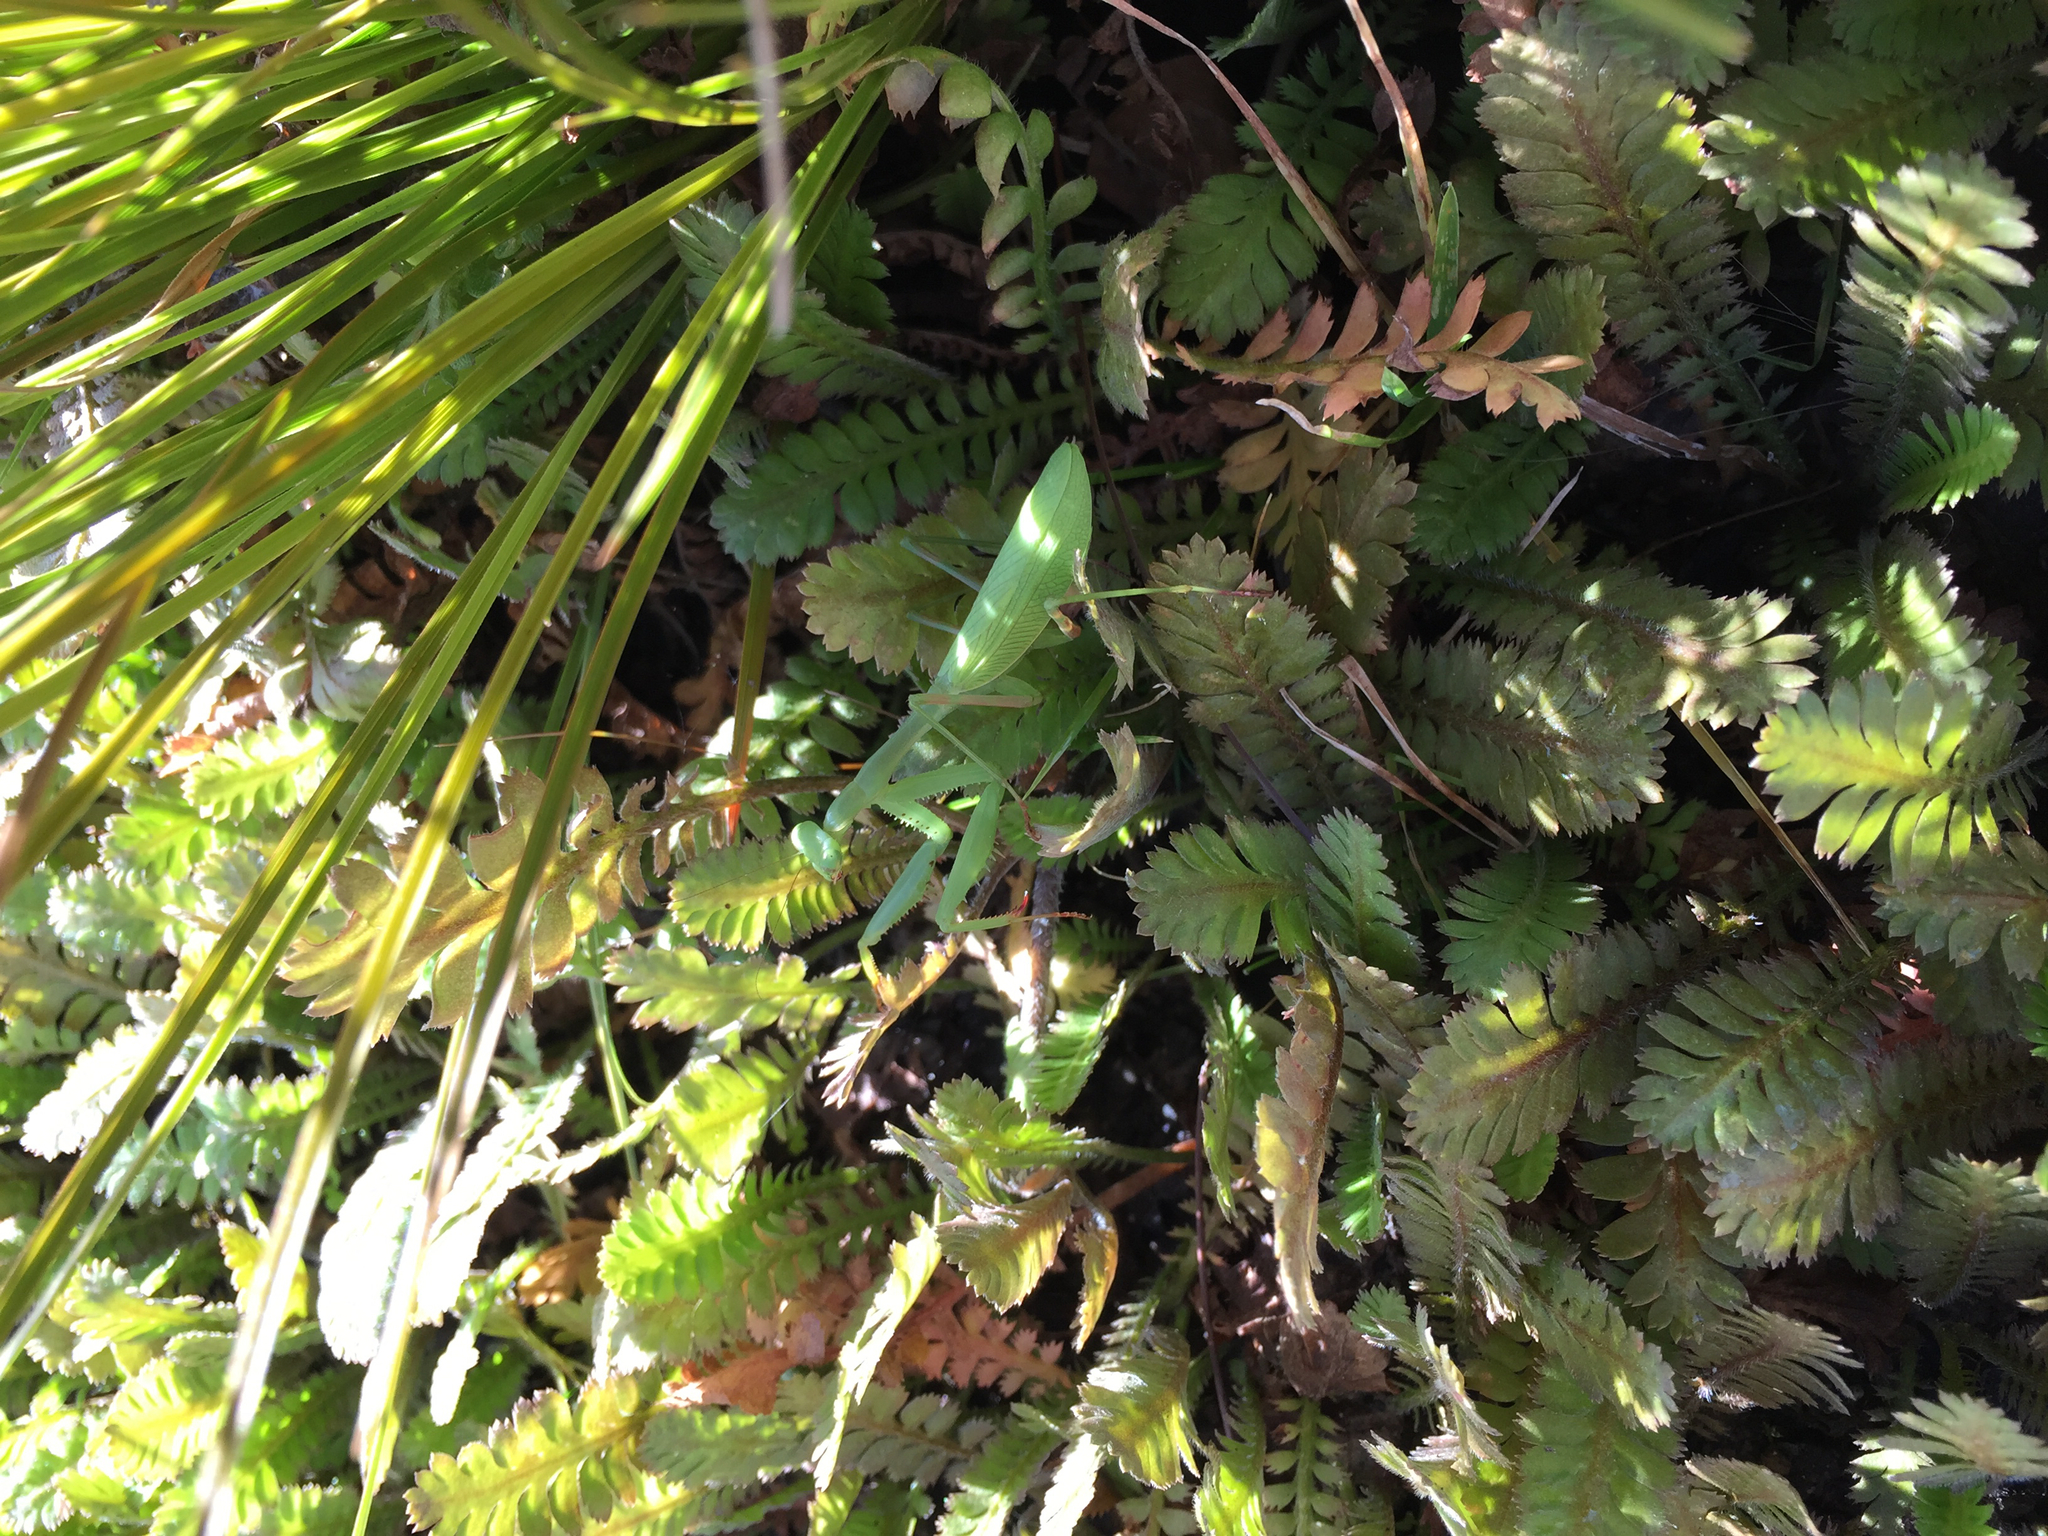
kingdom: Animalia
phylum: Arthropoda
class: Insecta
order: Mantodea
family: Miomantidae
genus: Miomantis
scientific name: Miomantis caffra
